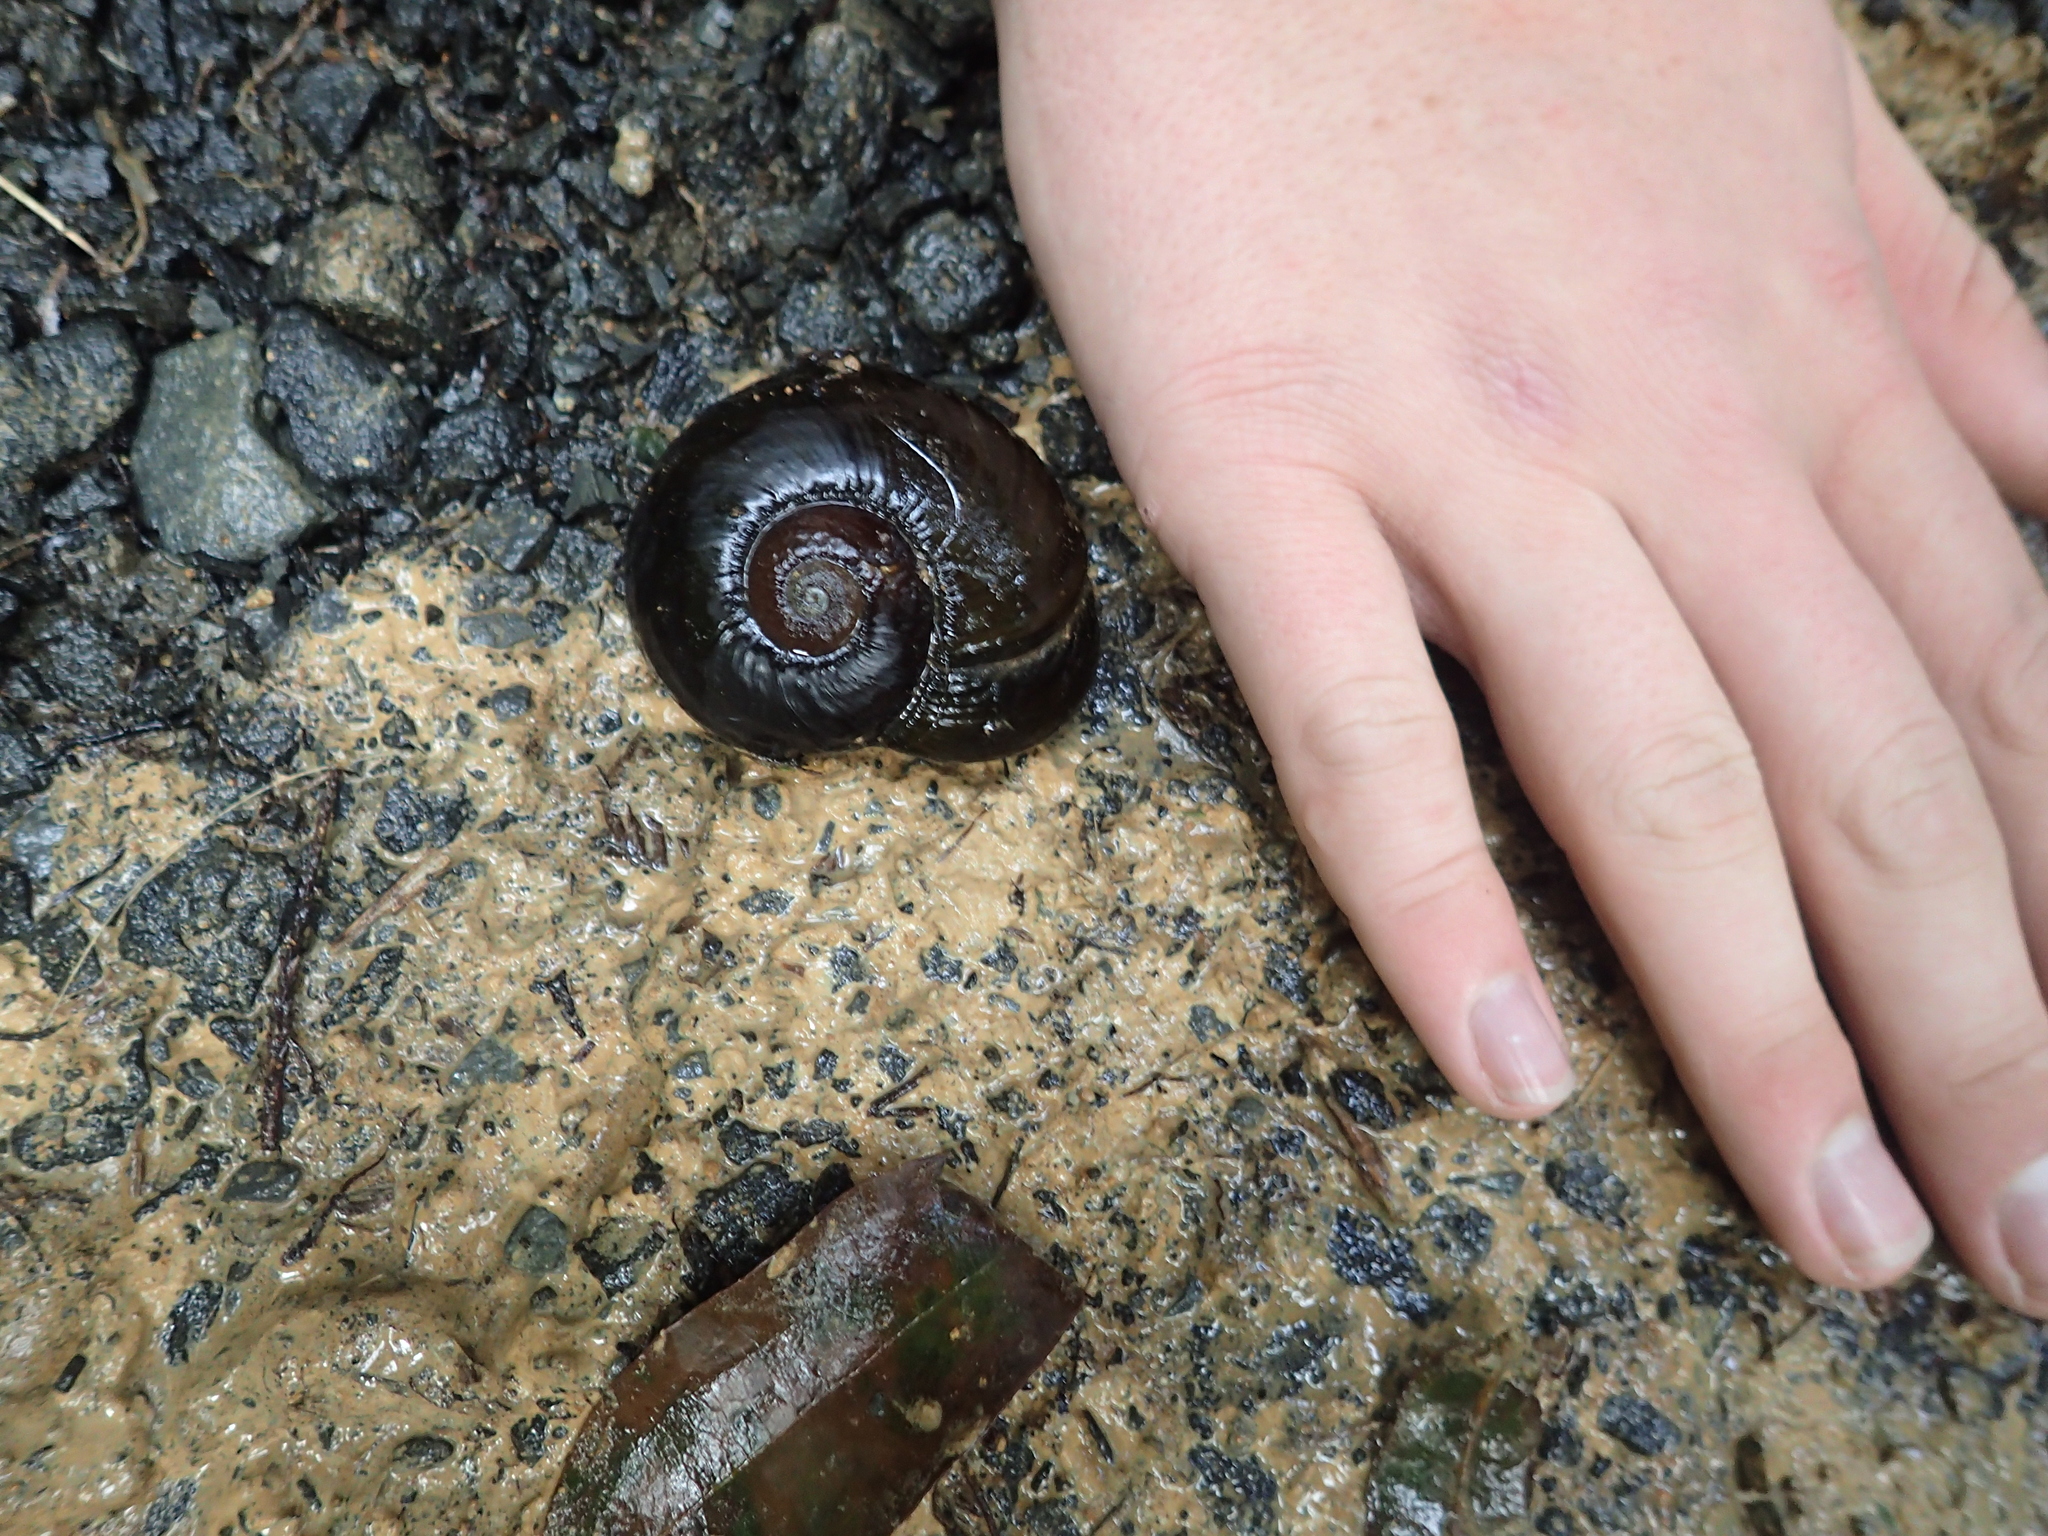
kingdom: Animalia
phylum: Mollusca
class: Gastropoda
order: Stylommatophora
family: Rhytididae
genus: Paryphanta
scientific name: Paryphanta busbyi
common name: Kauri snail
